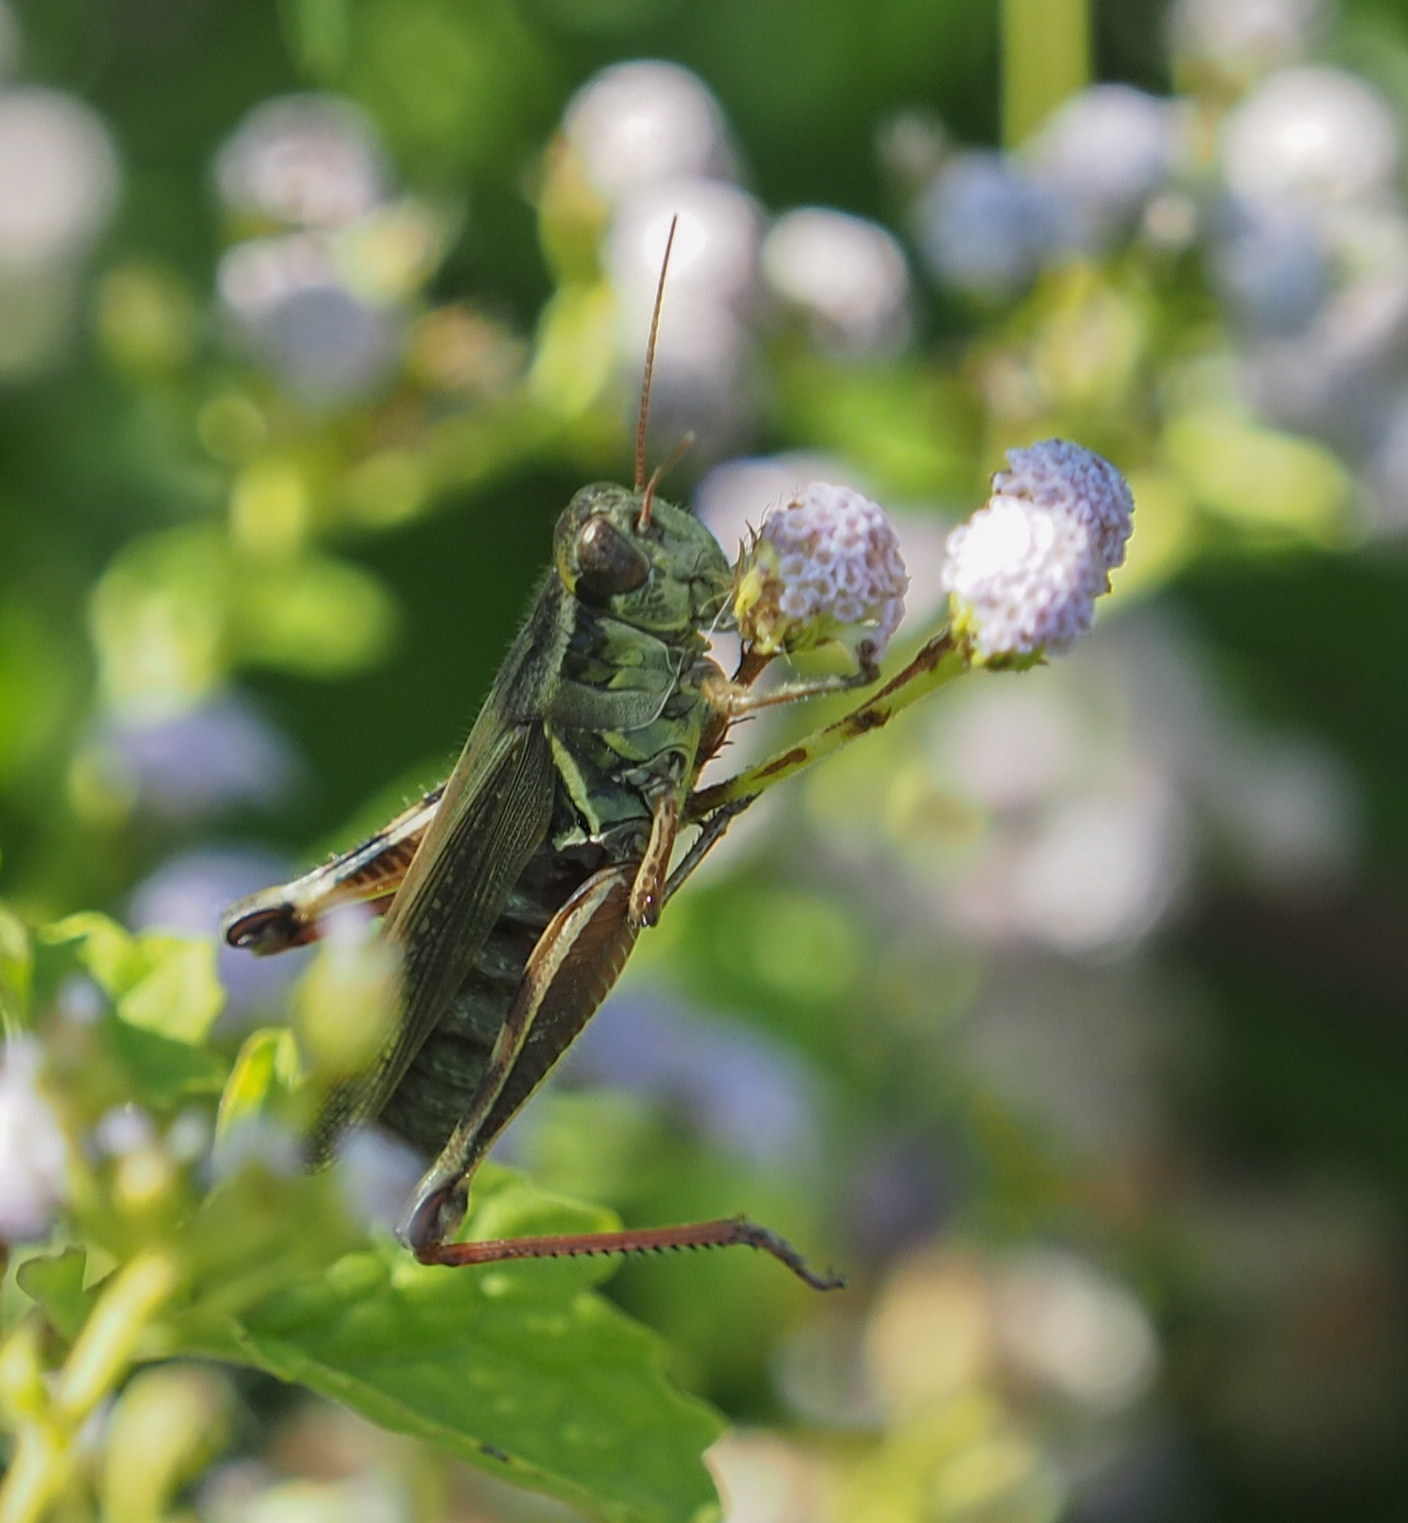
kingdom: Animalia
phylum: Arthropoda
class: Insecta
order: Orthoptera
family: Acrididae
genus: Melanoplus
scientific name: Melanoplus femurrubrum
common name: Red-legged grasshopper
